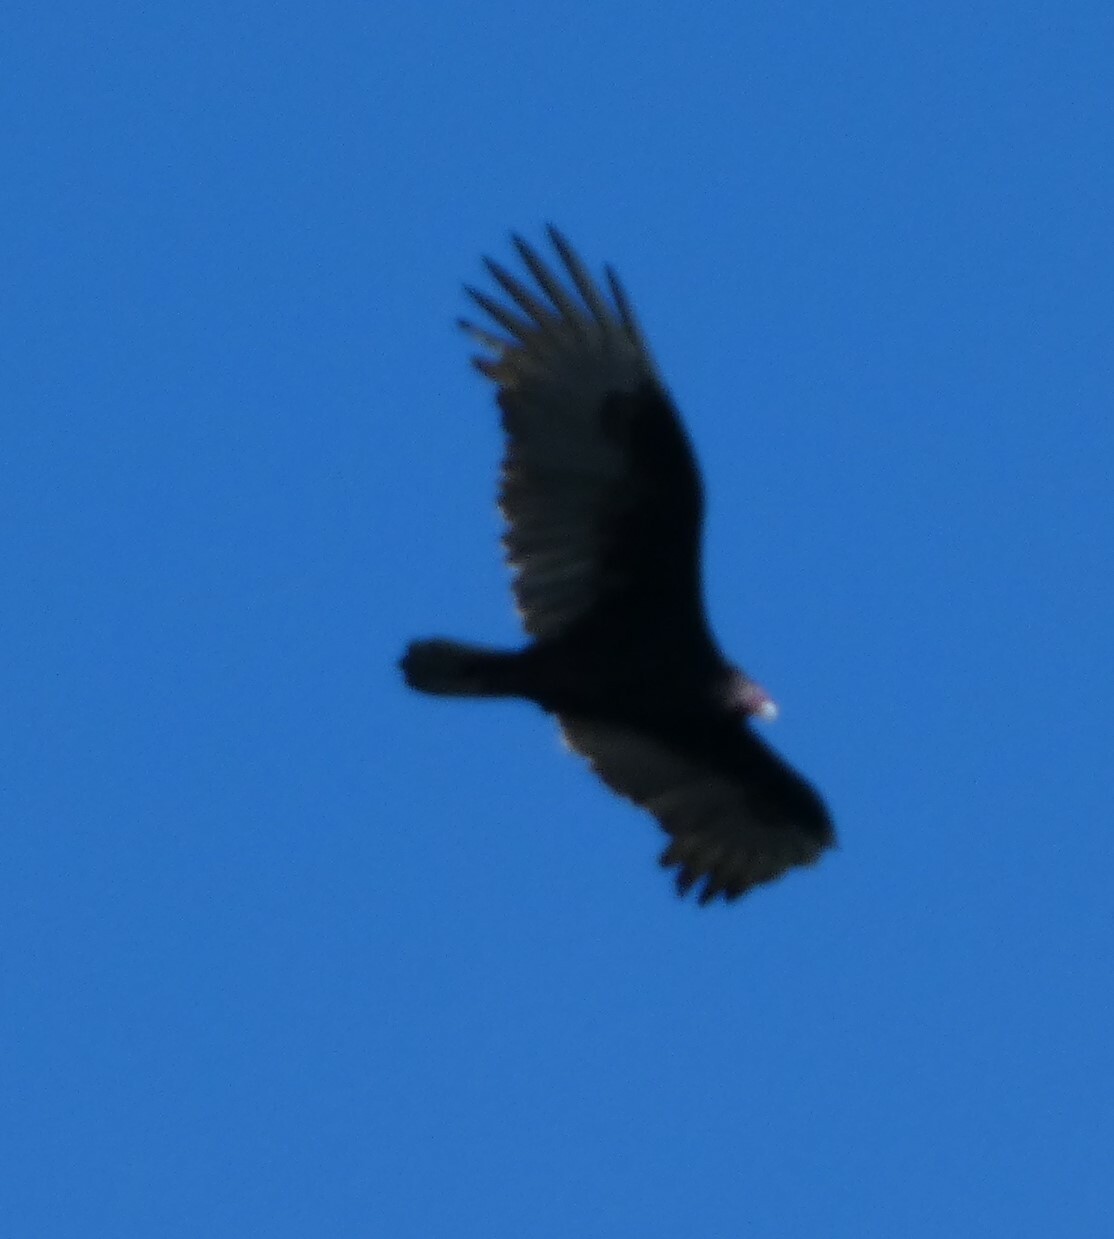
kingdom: Animalia
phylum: Chordata
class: Aves
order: Accipitriformes
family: Cathartidae
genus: Cathartes
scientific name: Cathartes aura
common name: Turkey vulture
